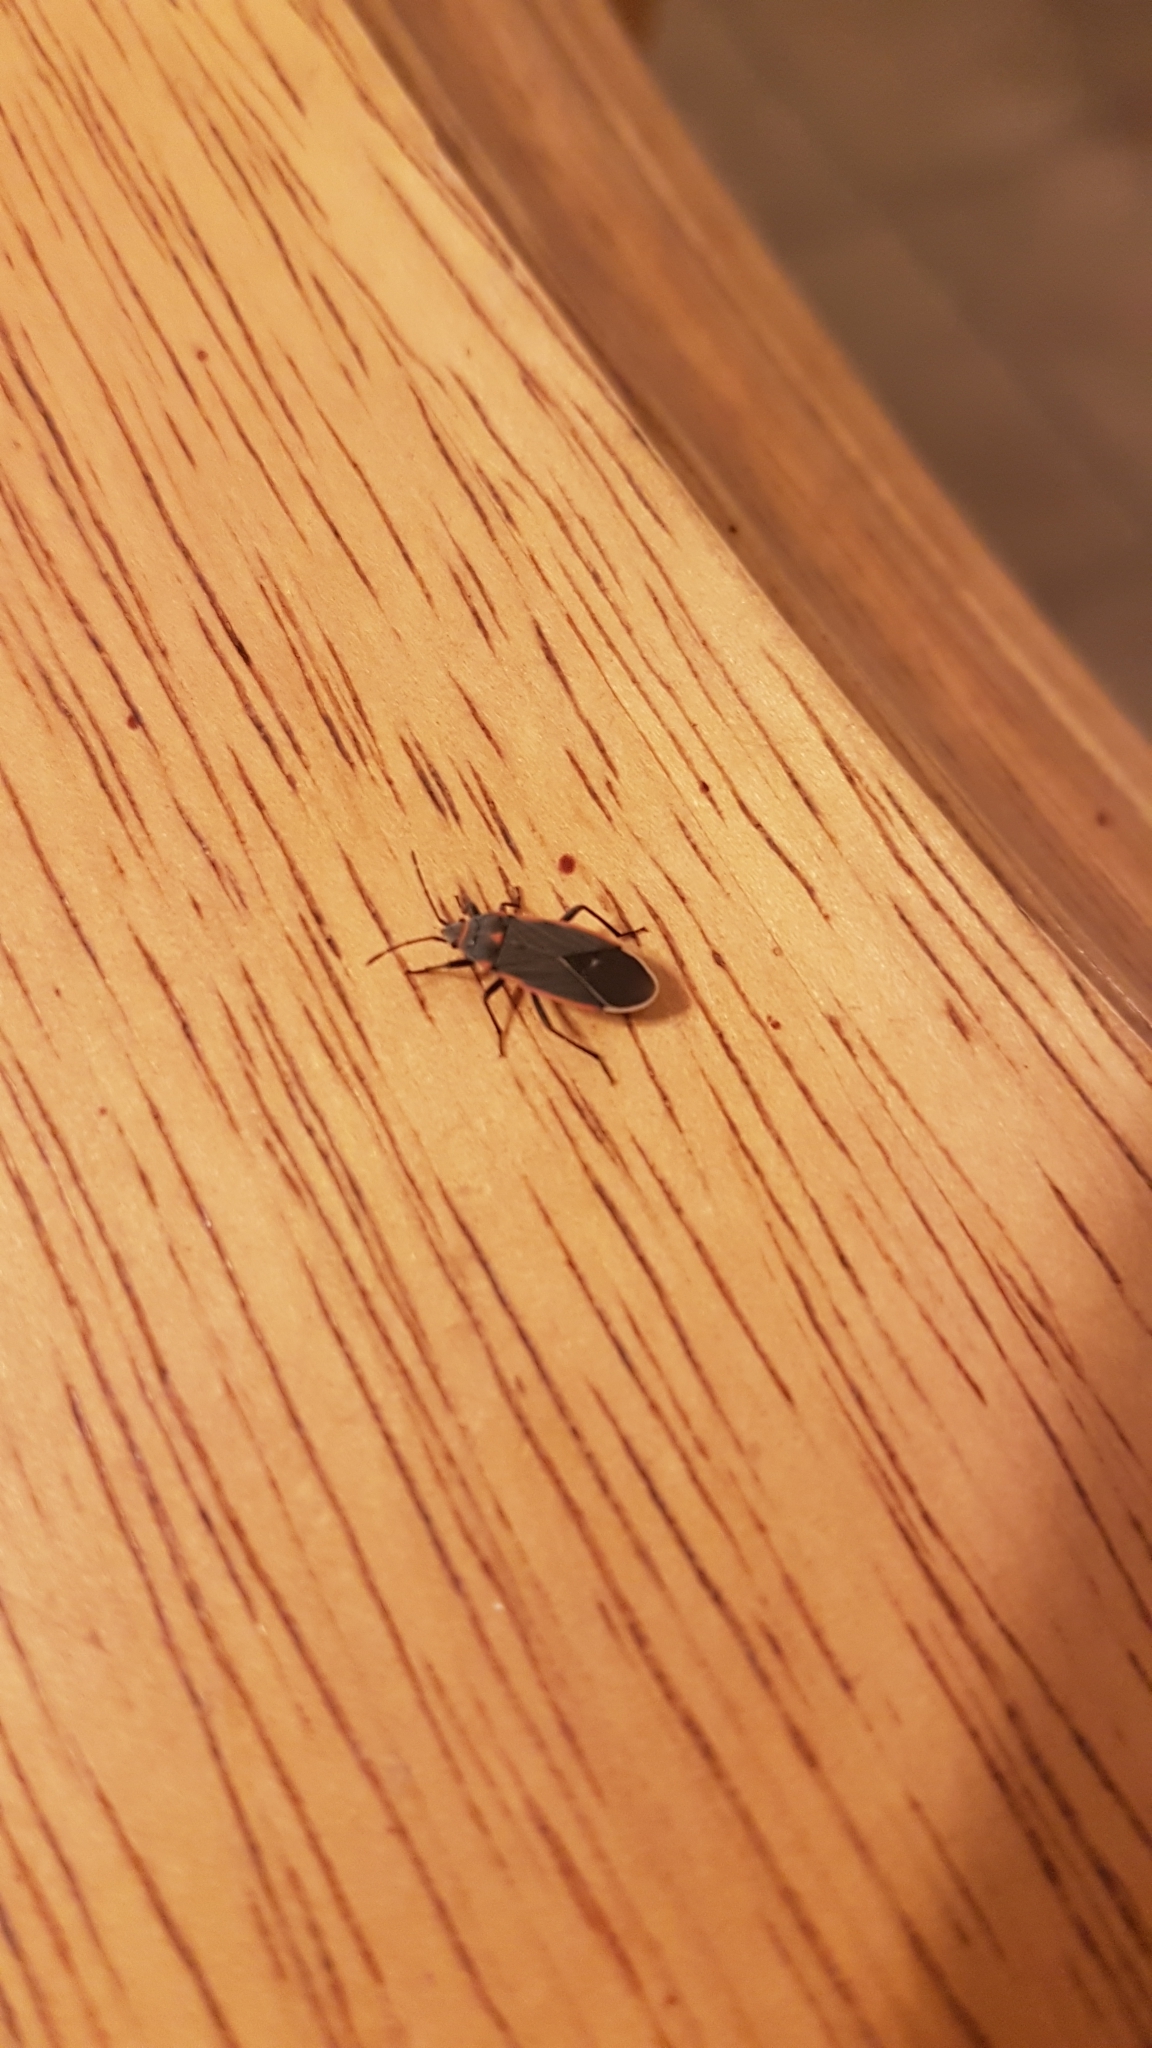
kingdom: Animalia
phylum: Arthropoda
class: Insecta
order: Hemiptera
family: Lygaeidae
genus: Melacoryphus
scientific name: Melacoryphus lateralis
